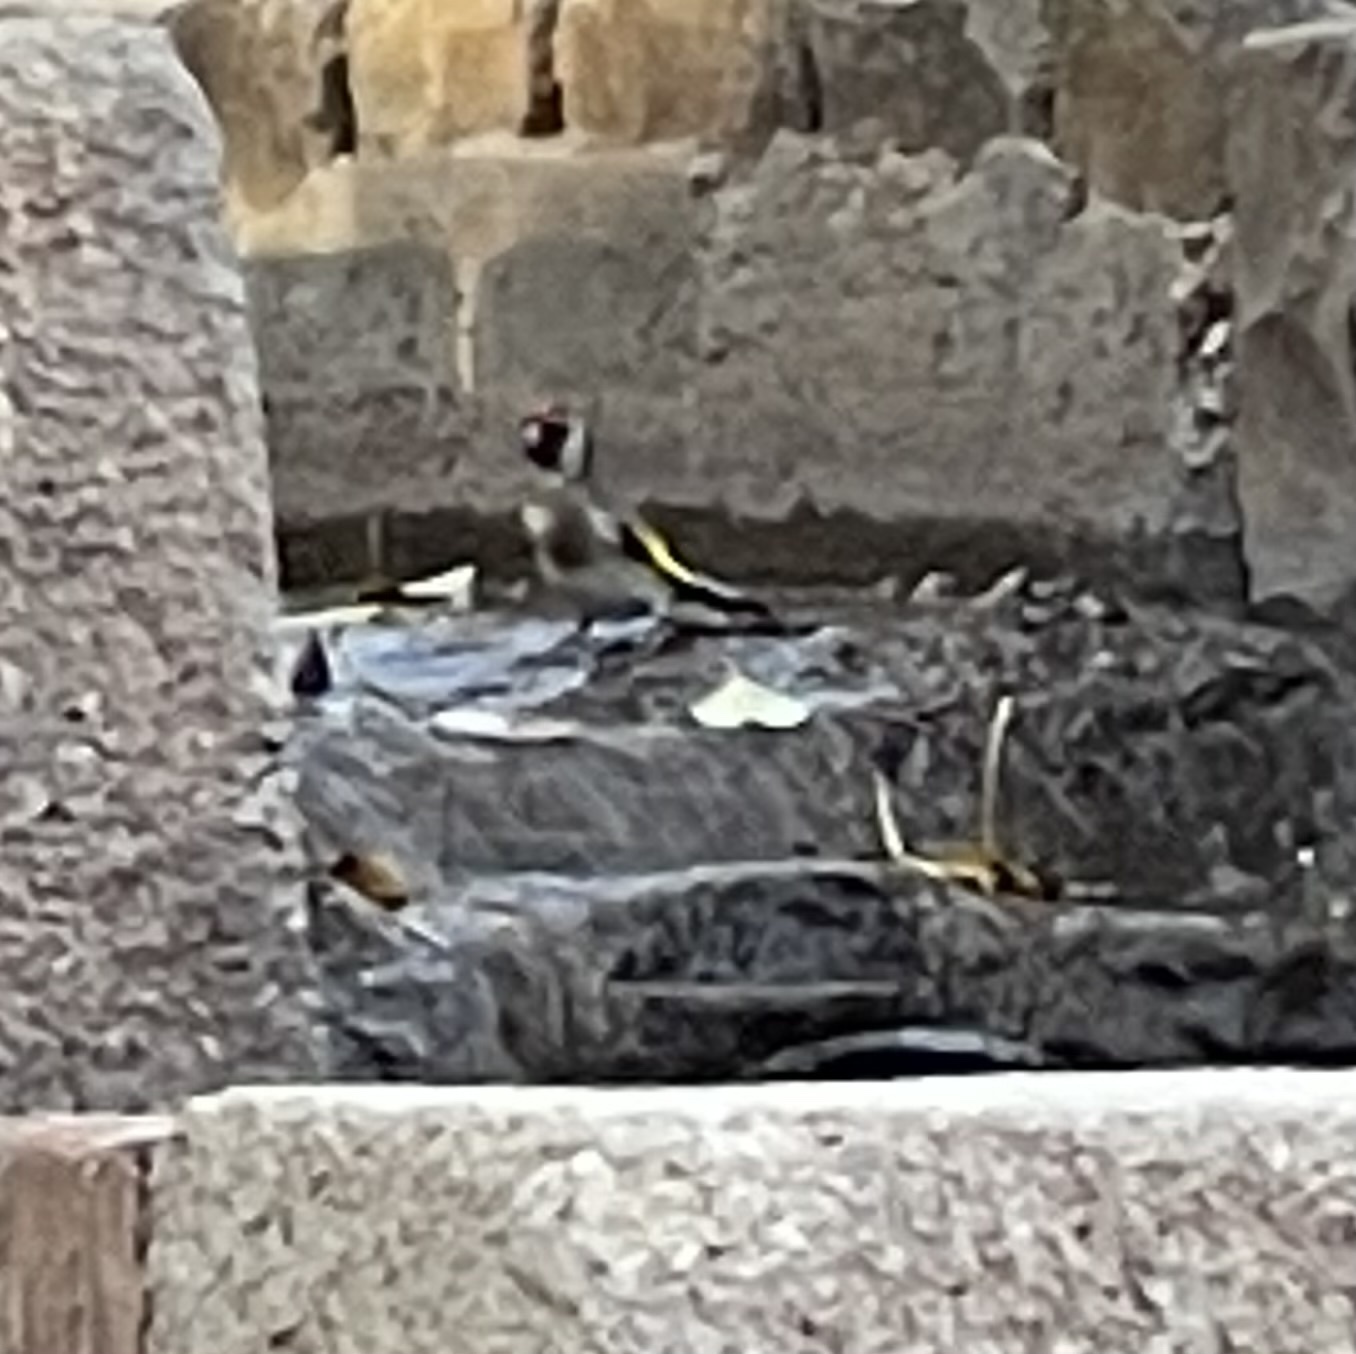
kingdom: Animalia
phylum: Chordata
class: Aves
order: Passeriformes
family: Fringillidae
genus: Carduelis
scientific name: Carduelis carduelis
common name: European goldfinch
